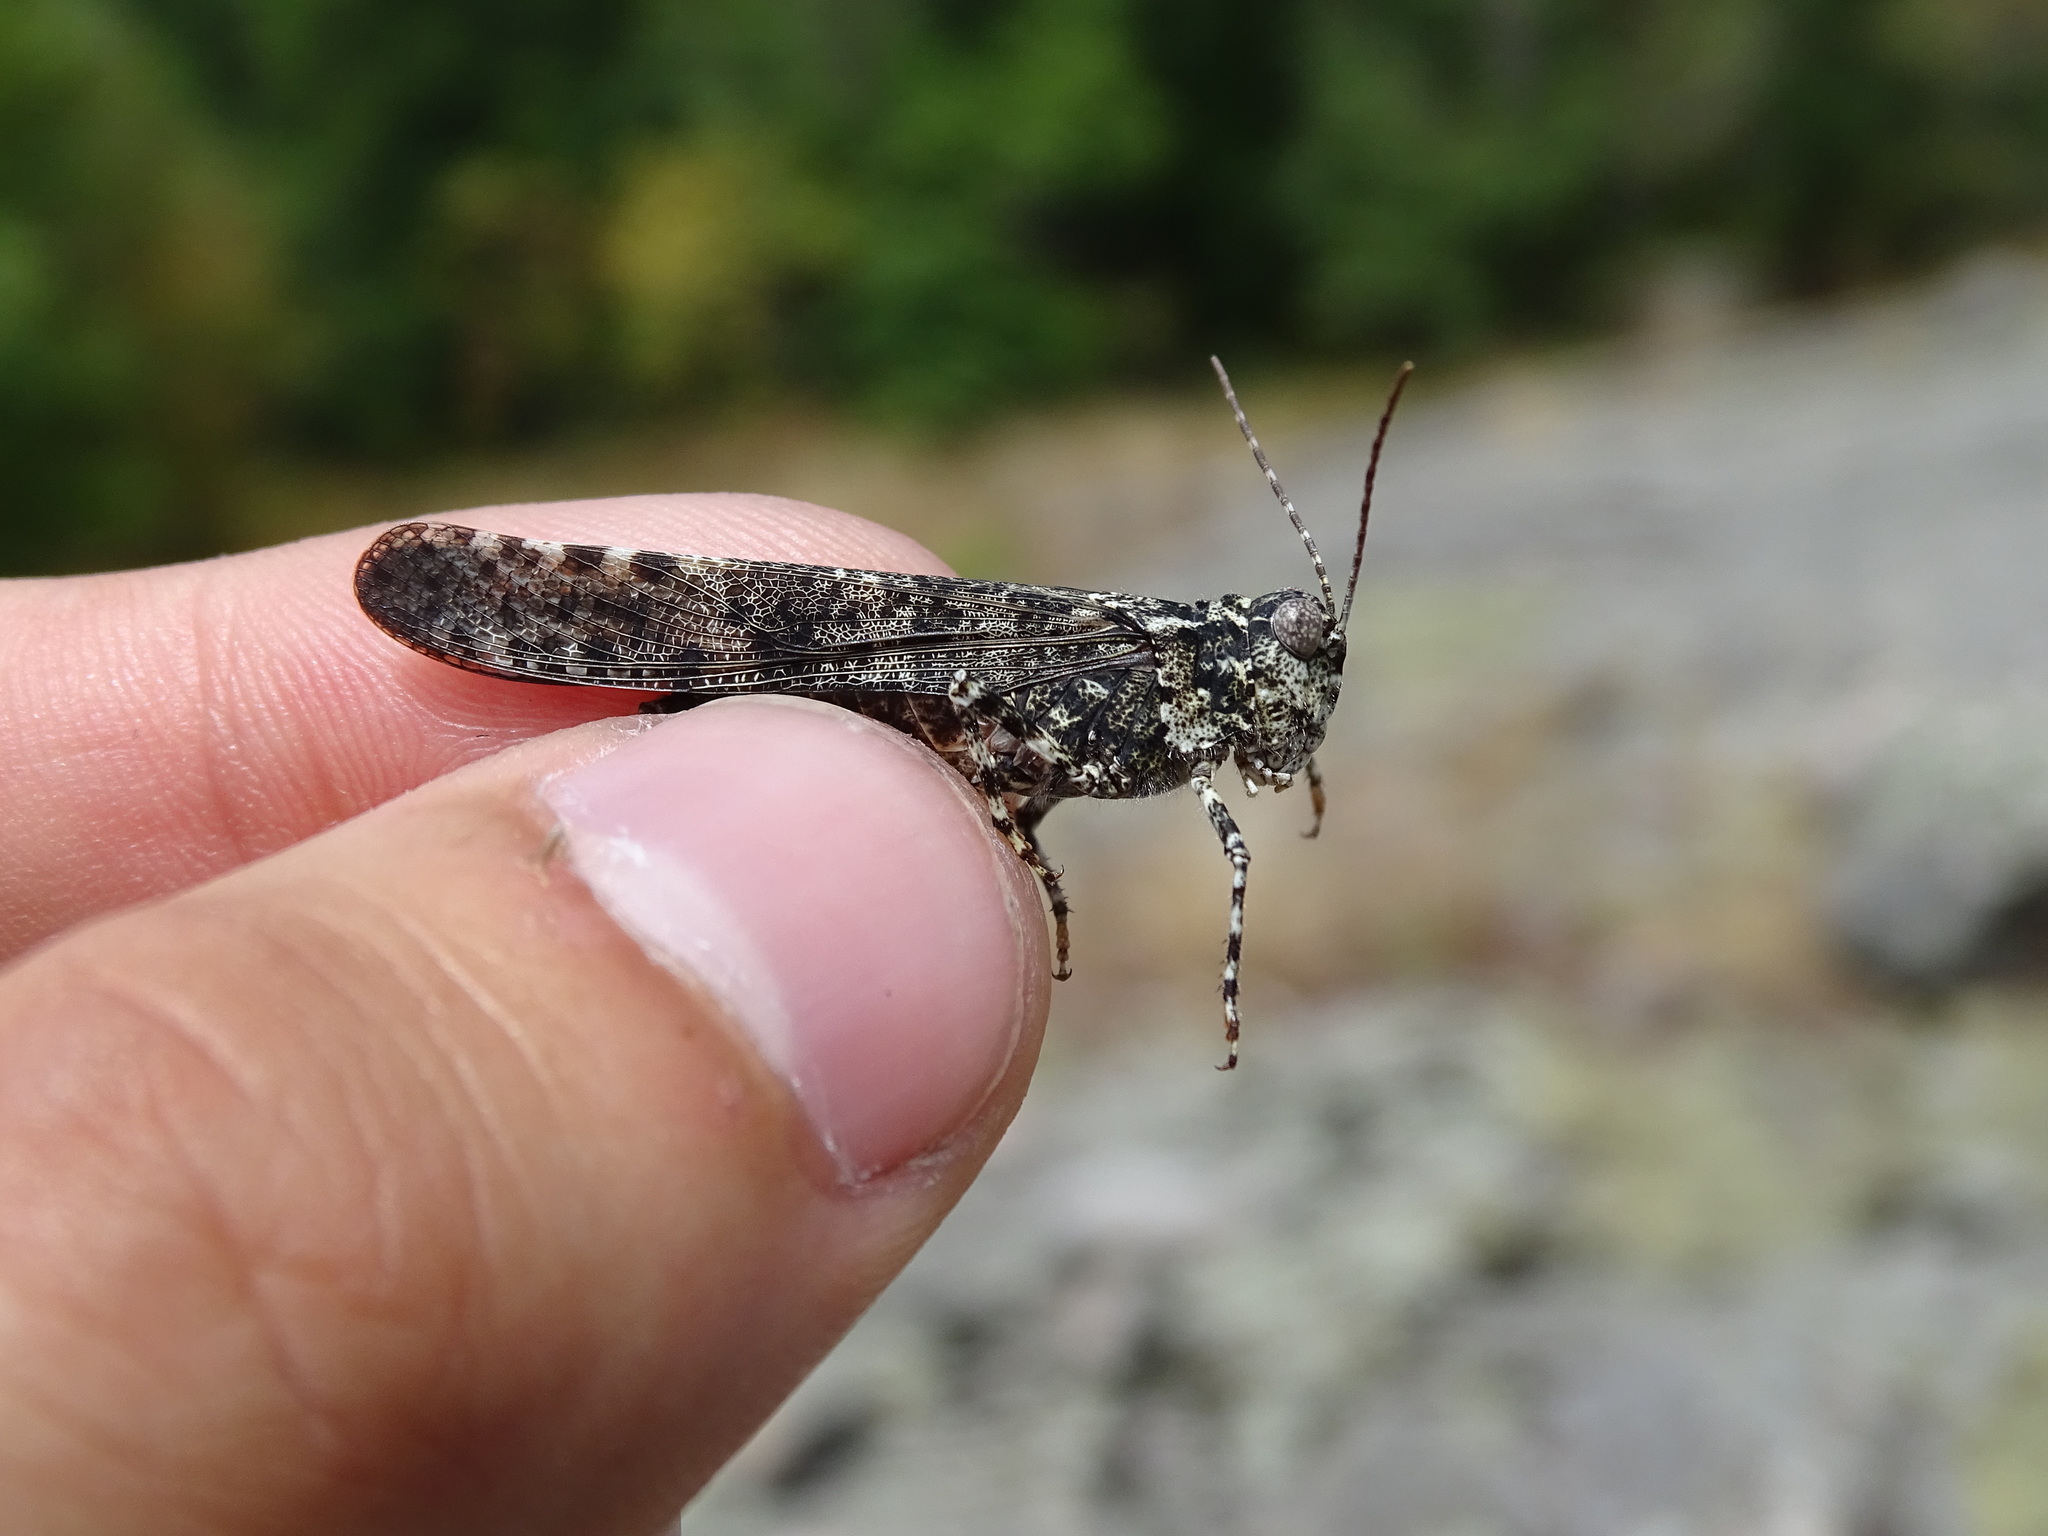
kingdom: Animalia
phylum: Arthropoda
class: Insecta
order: Orthoptera
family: Acrididae
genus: Trimerotropis
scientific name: Trimerotropis verruculata
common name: Crackling forest grasshopper
